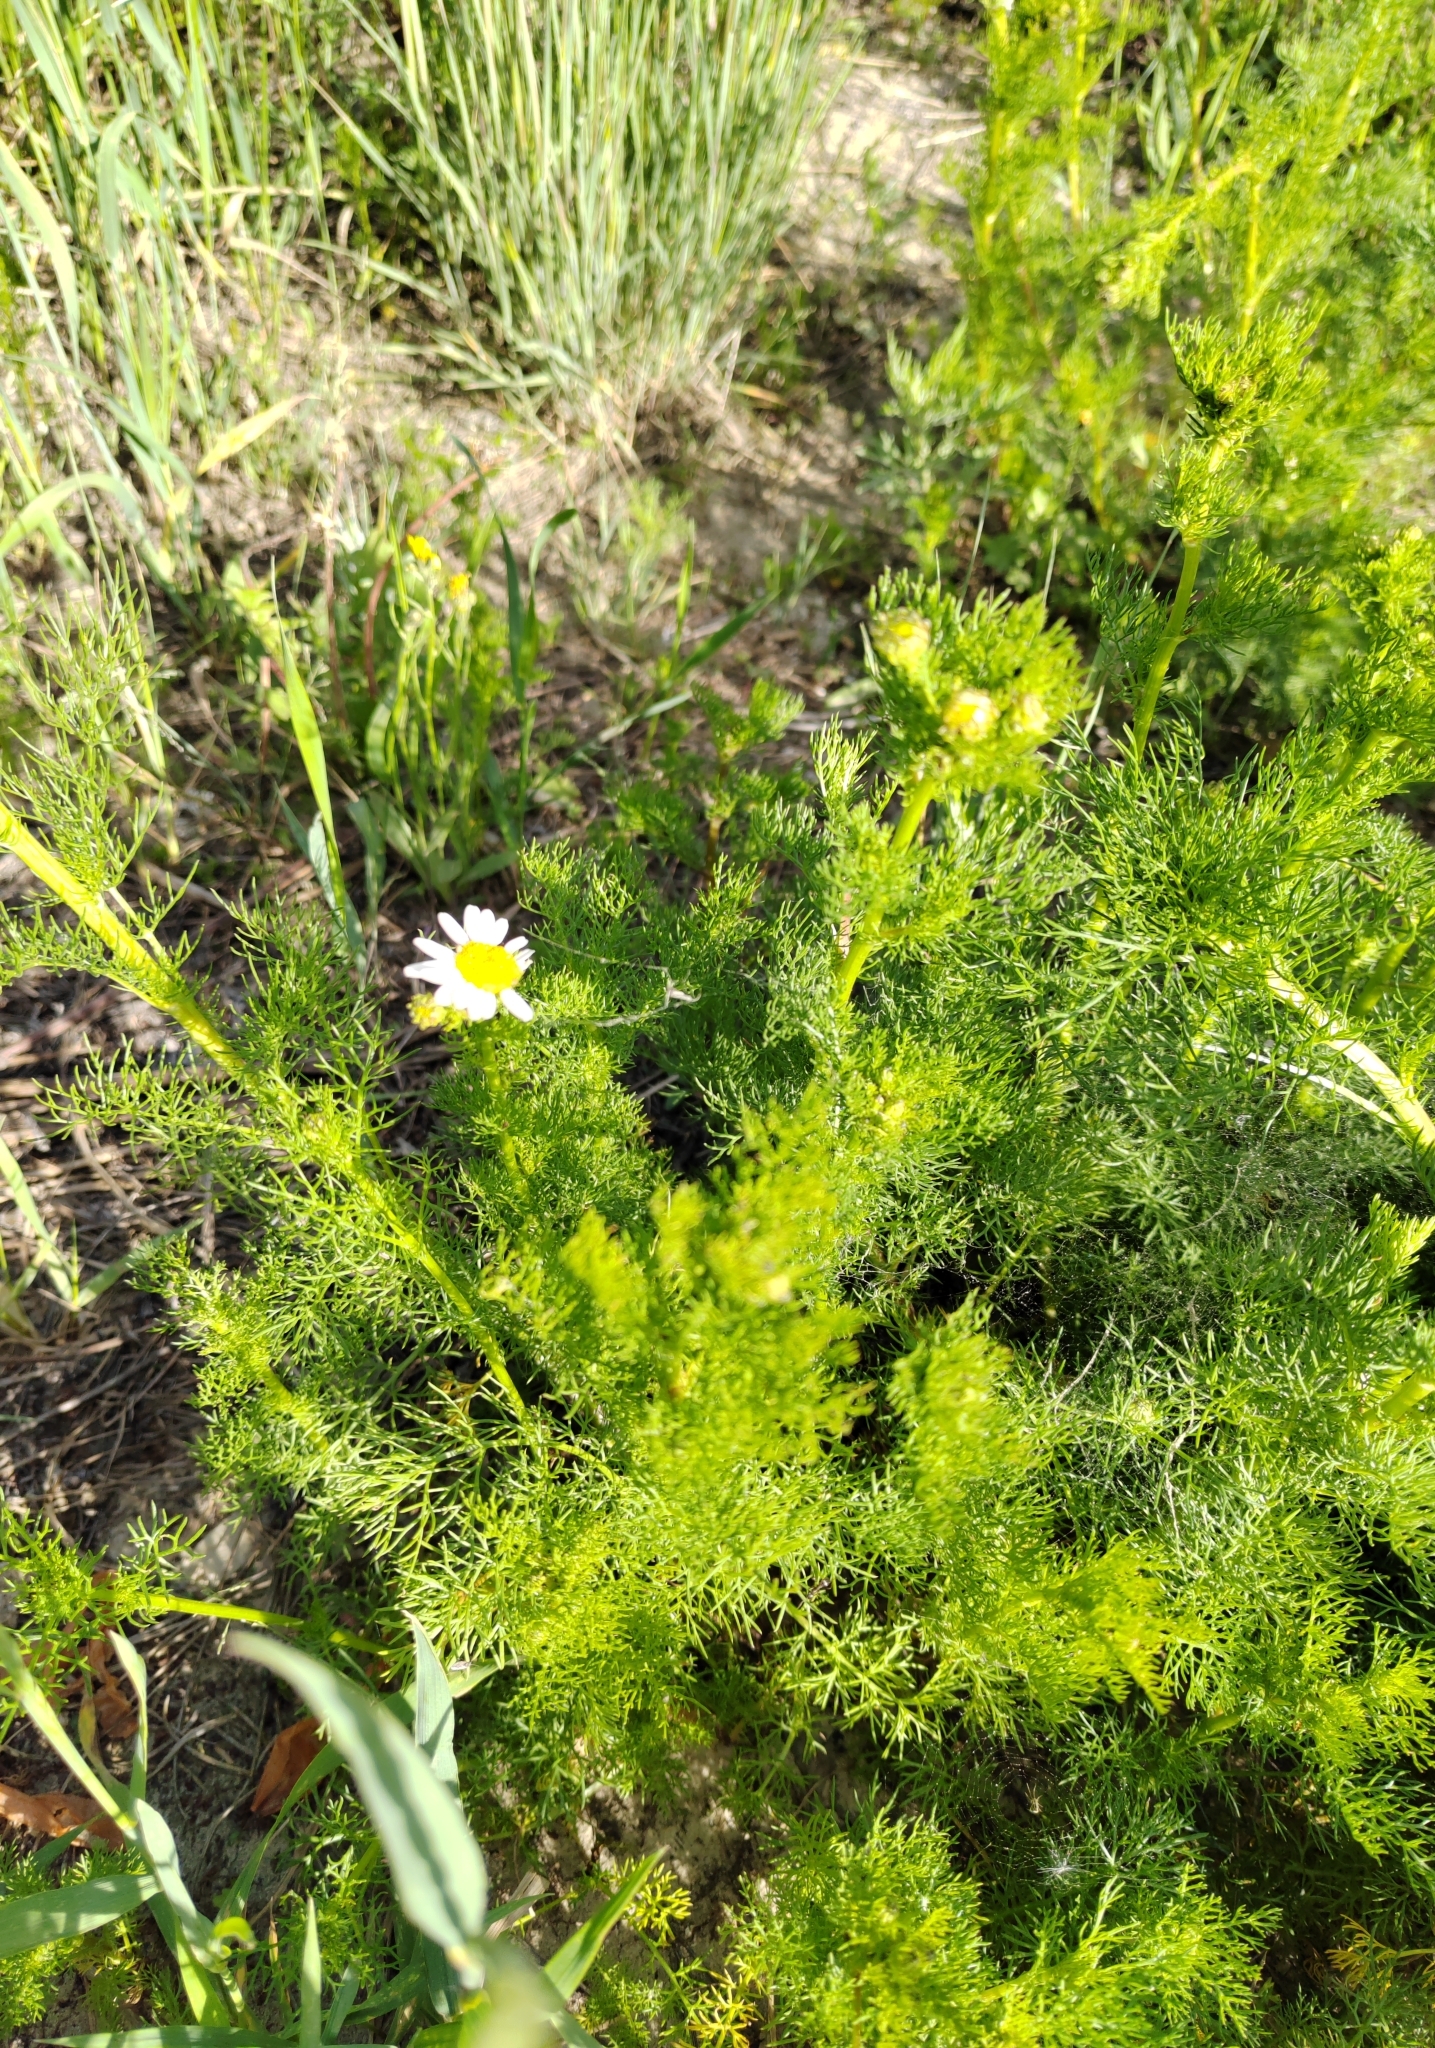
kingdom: Plantae
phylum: Tracheophyta
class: Magnoliopsida
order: Asterales
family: Asteraceae
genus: Tripleurospermum
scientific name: Tripleurospermum inodorum
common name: Scentless mayweed
